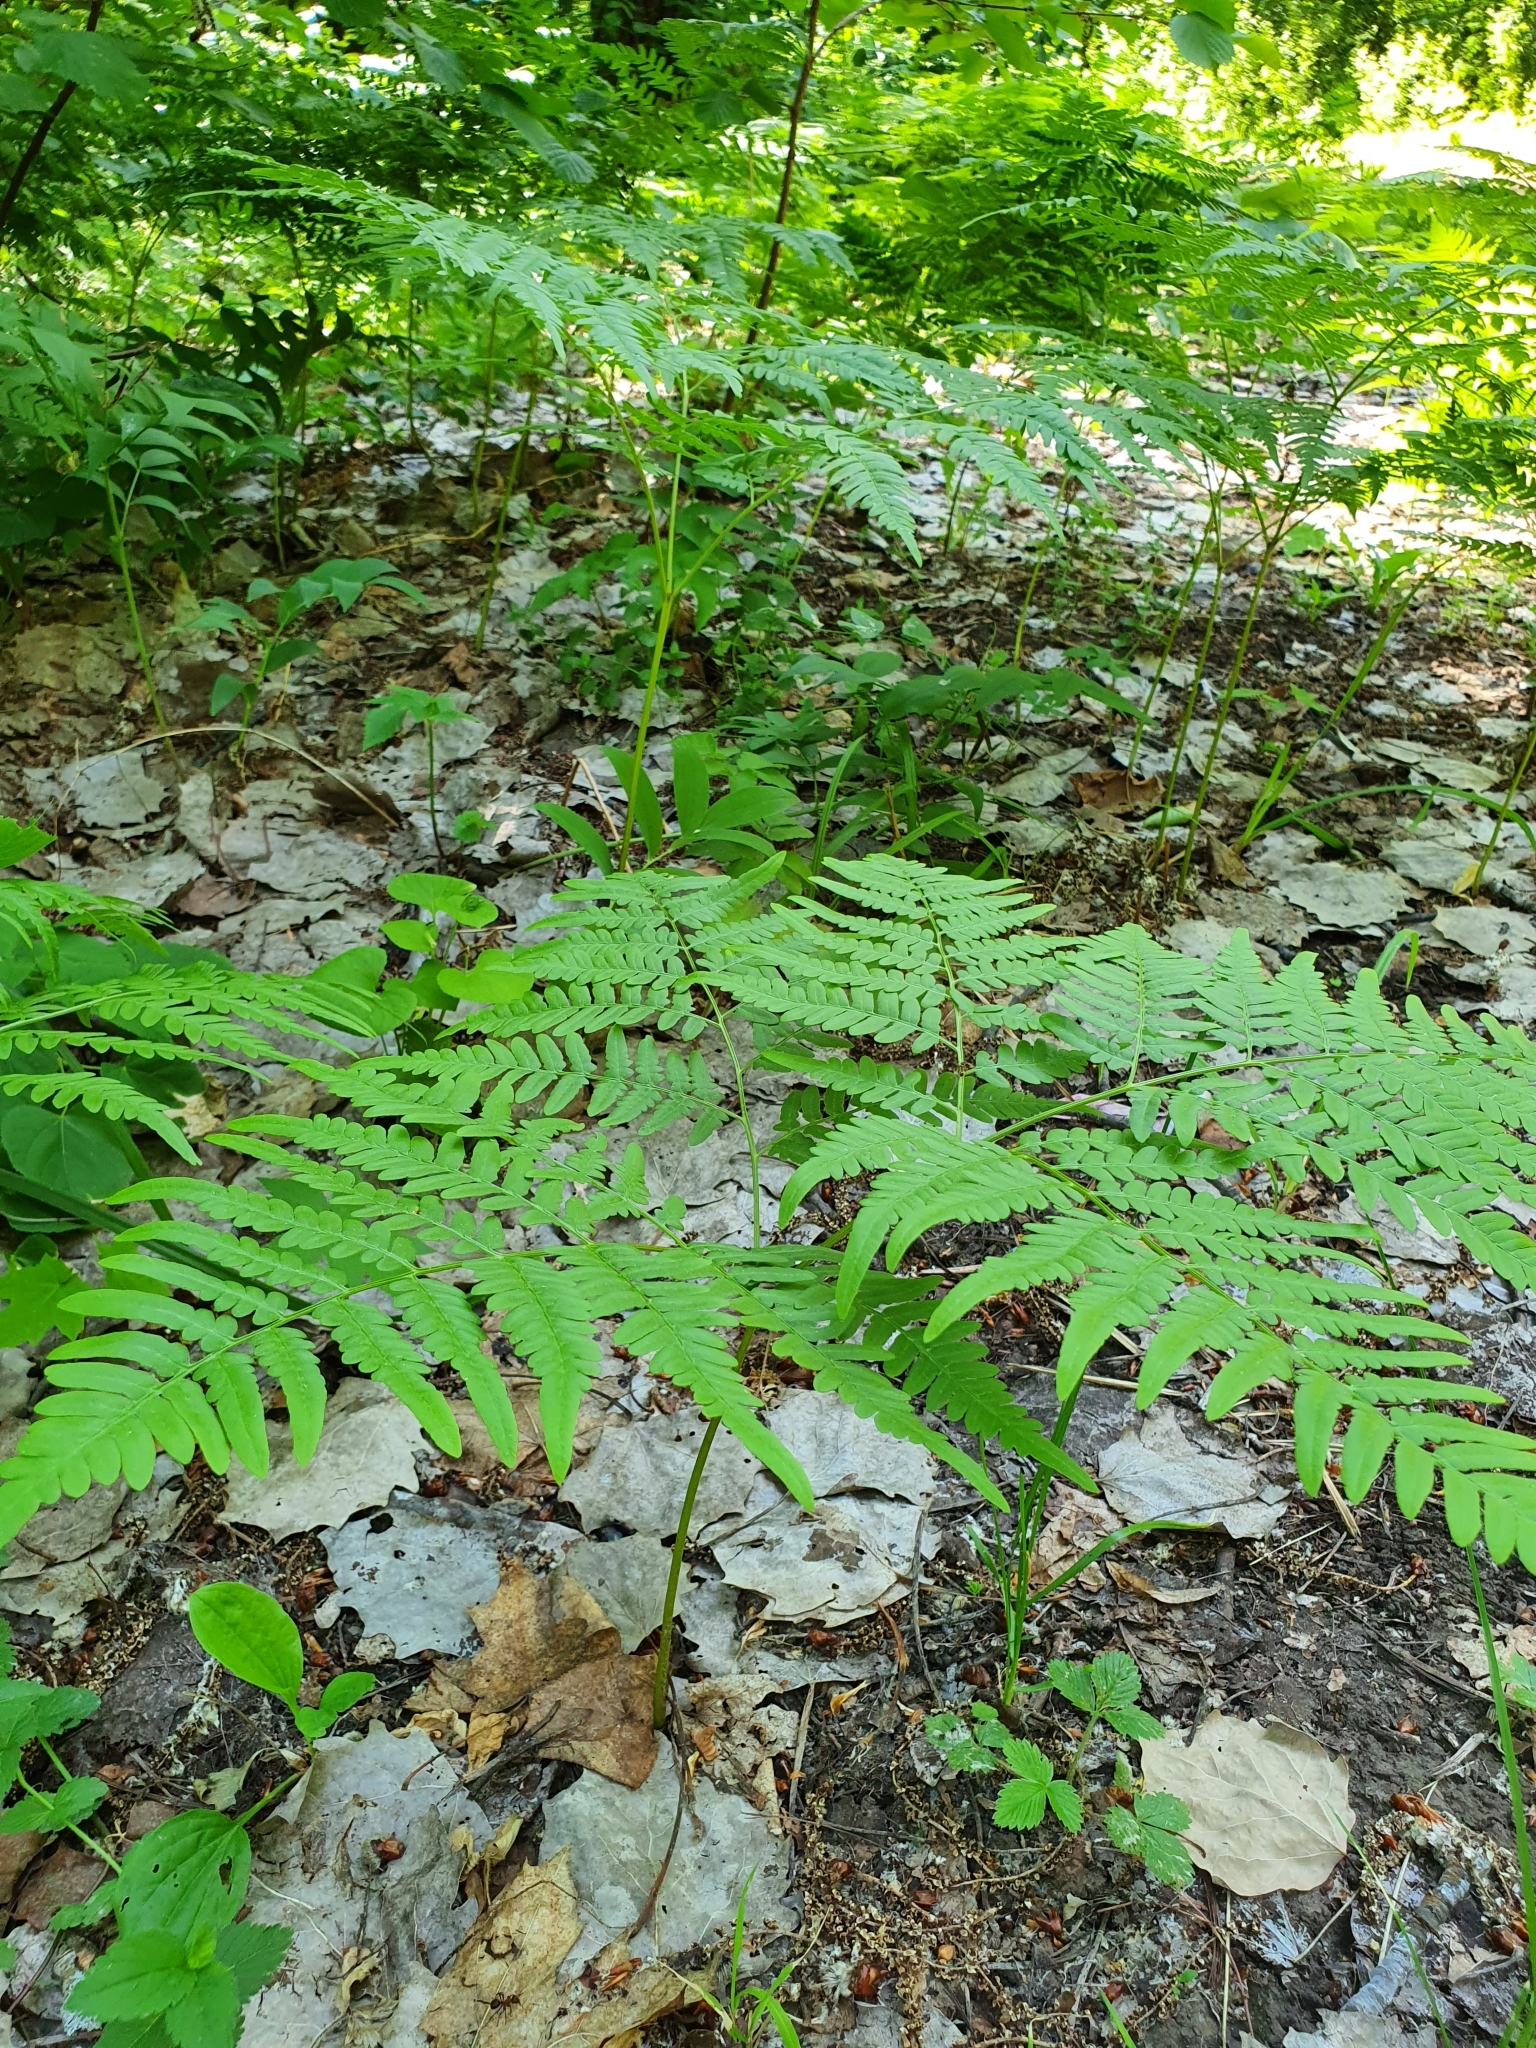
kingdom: Plantae
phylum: Tracheophyta
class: Polypodiopsida
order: Polypodiales
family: Dennstaedtiaceae
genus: Pteridium
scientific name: Pteridium aquilinum
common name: Bracken
